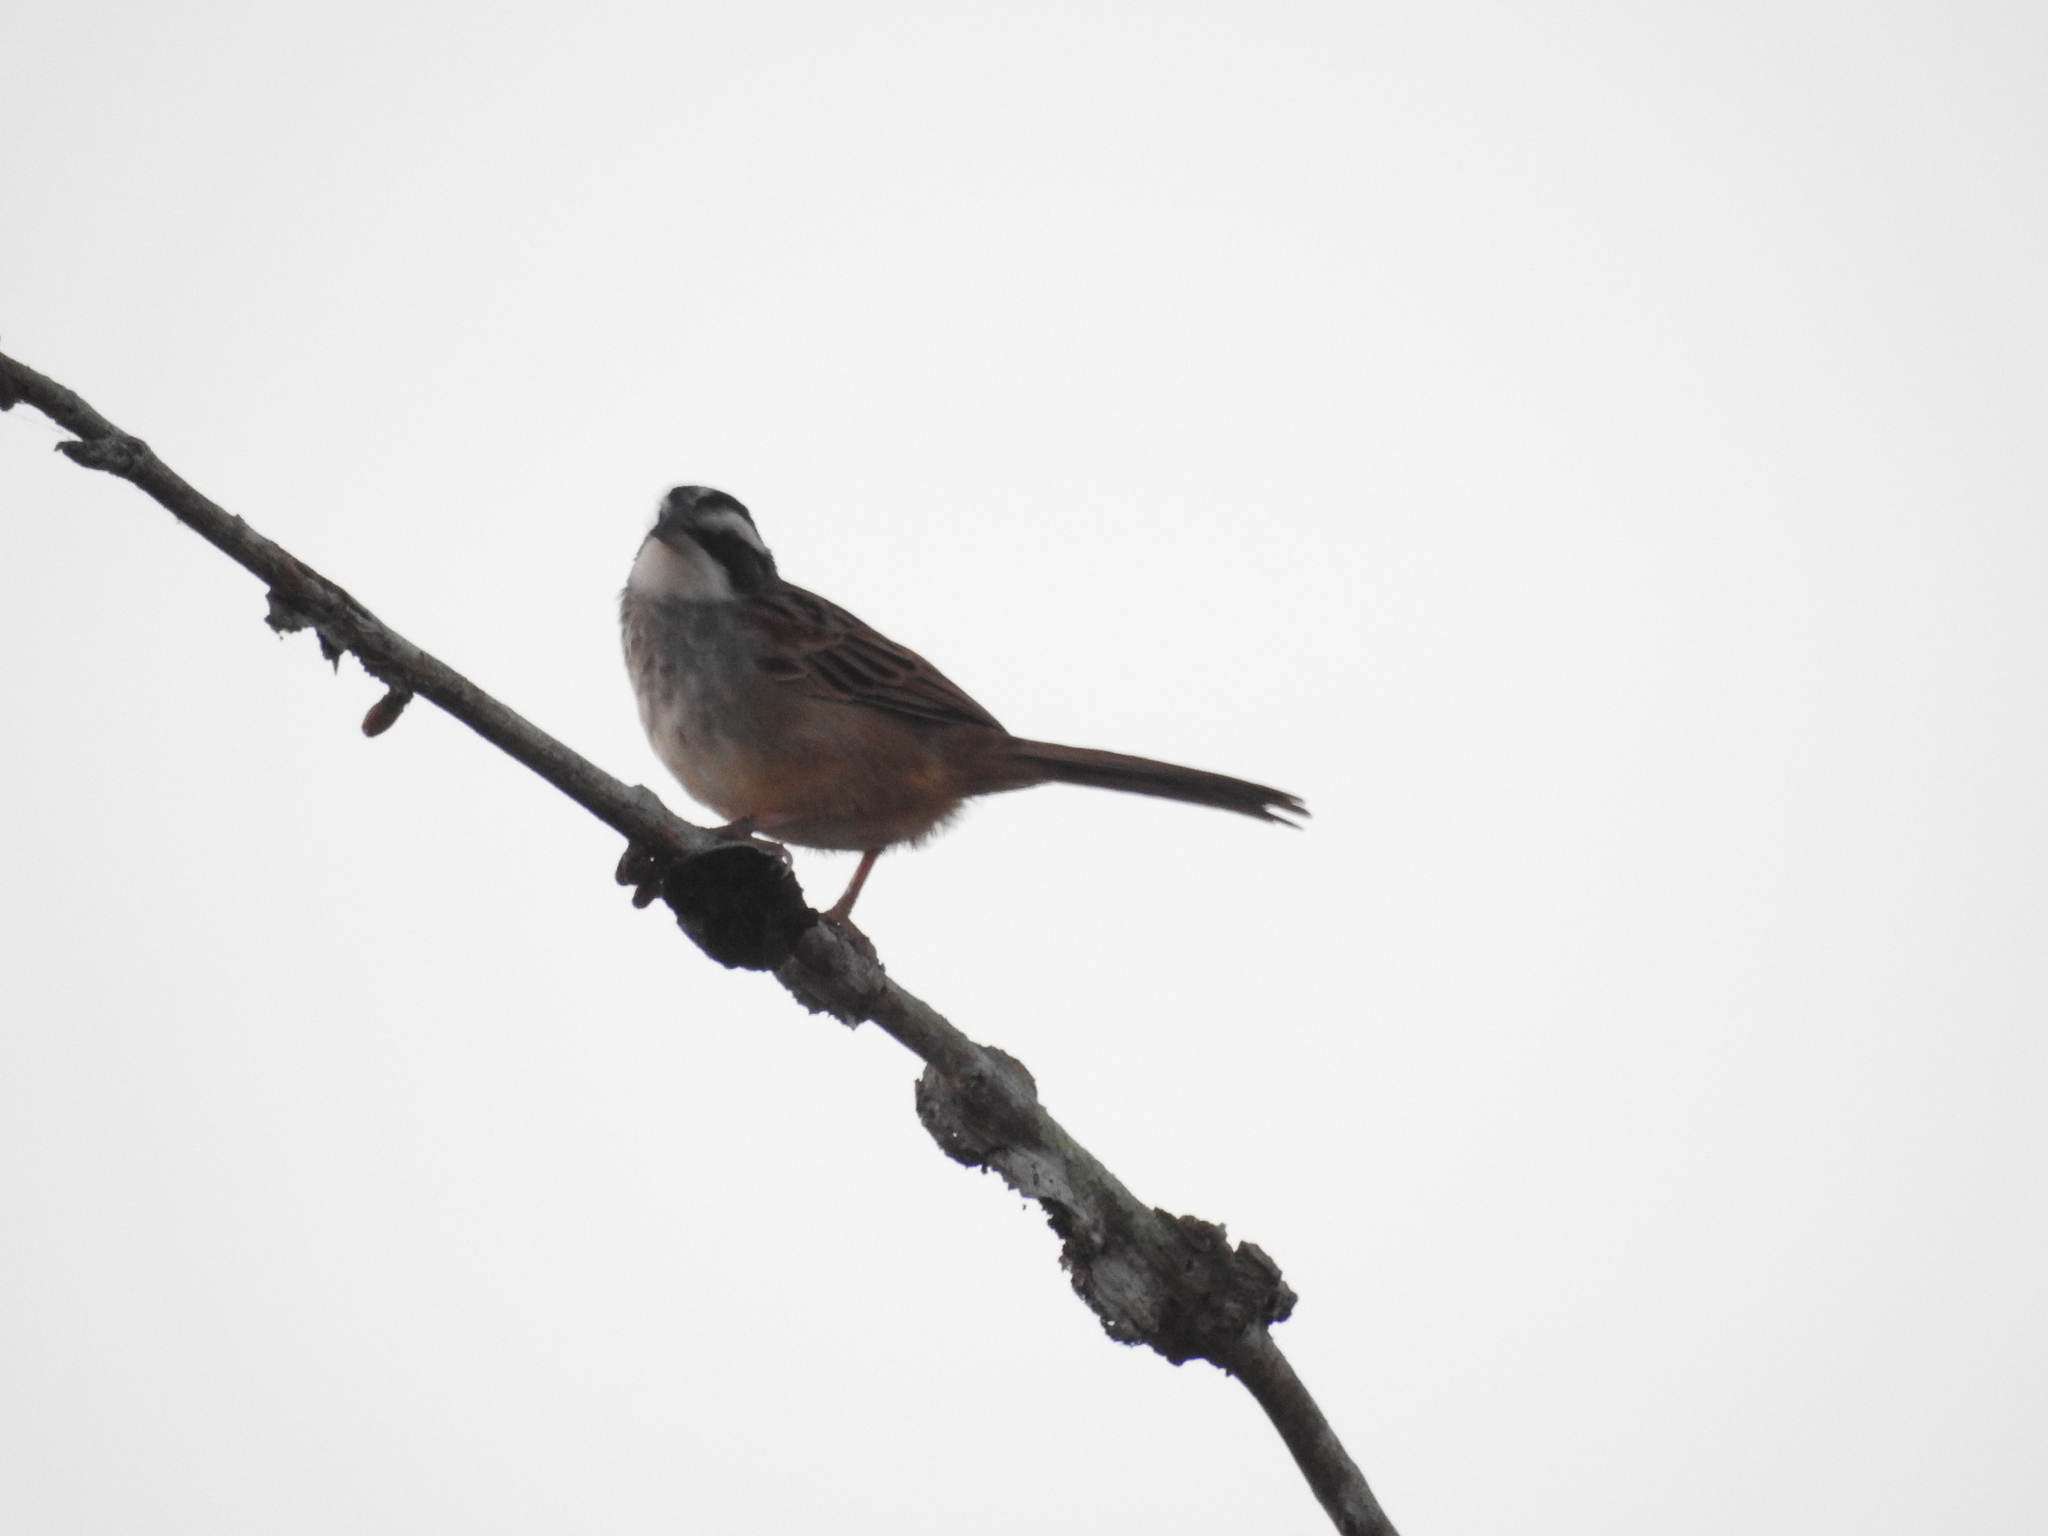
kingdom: Animalia
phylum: Chordata
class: Aves
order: Passeriformes
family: Passerellidae
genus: Peucaea
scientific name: Peucaea ruficauda
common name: Stripe-headed sparrow
